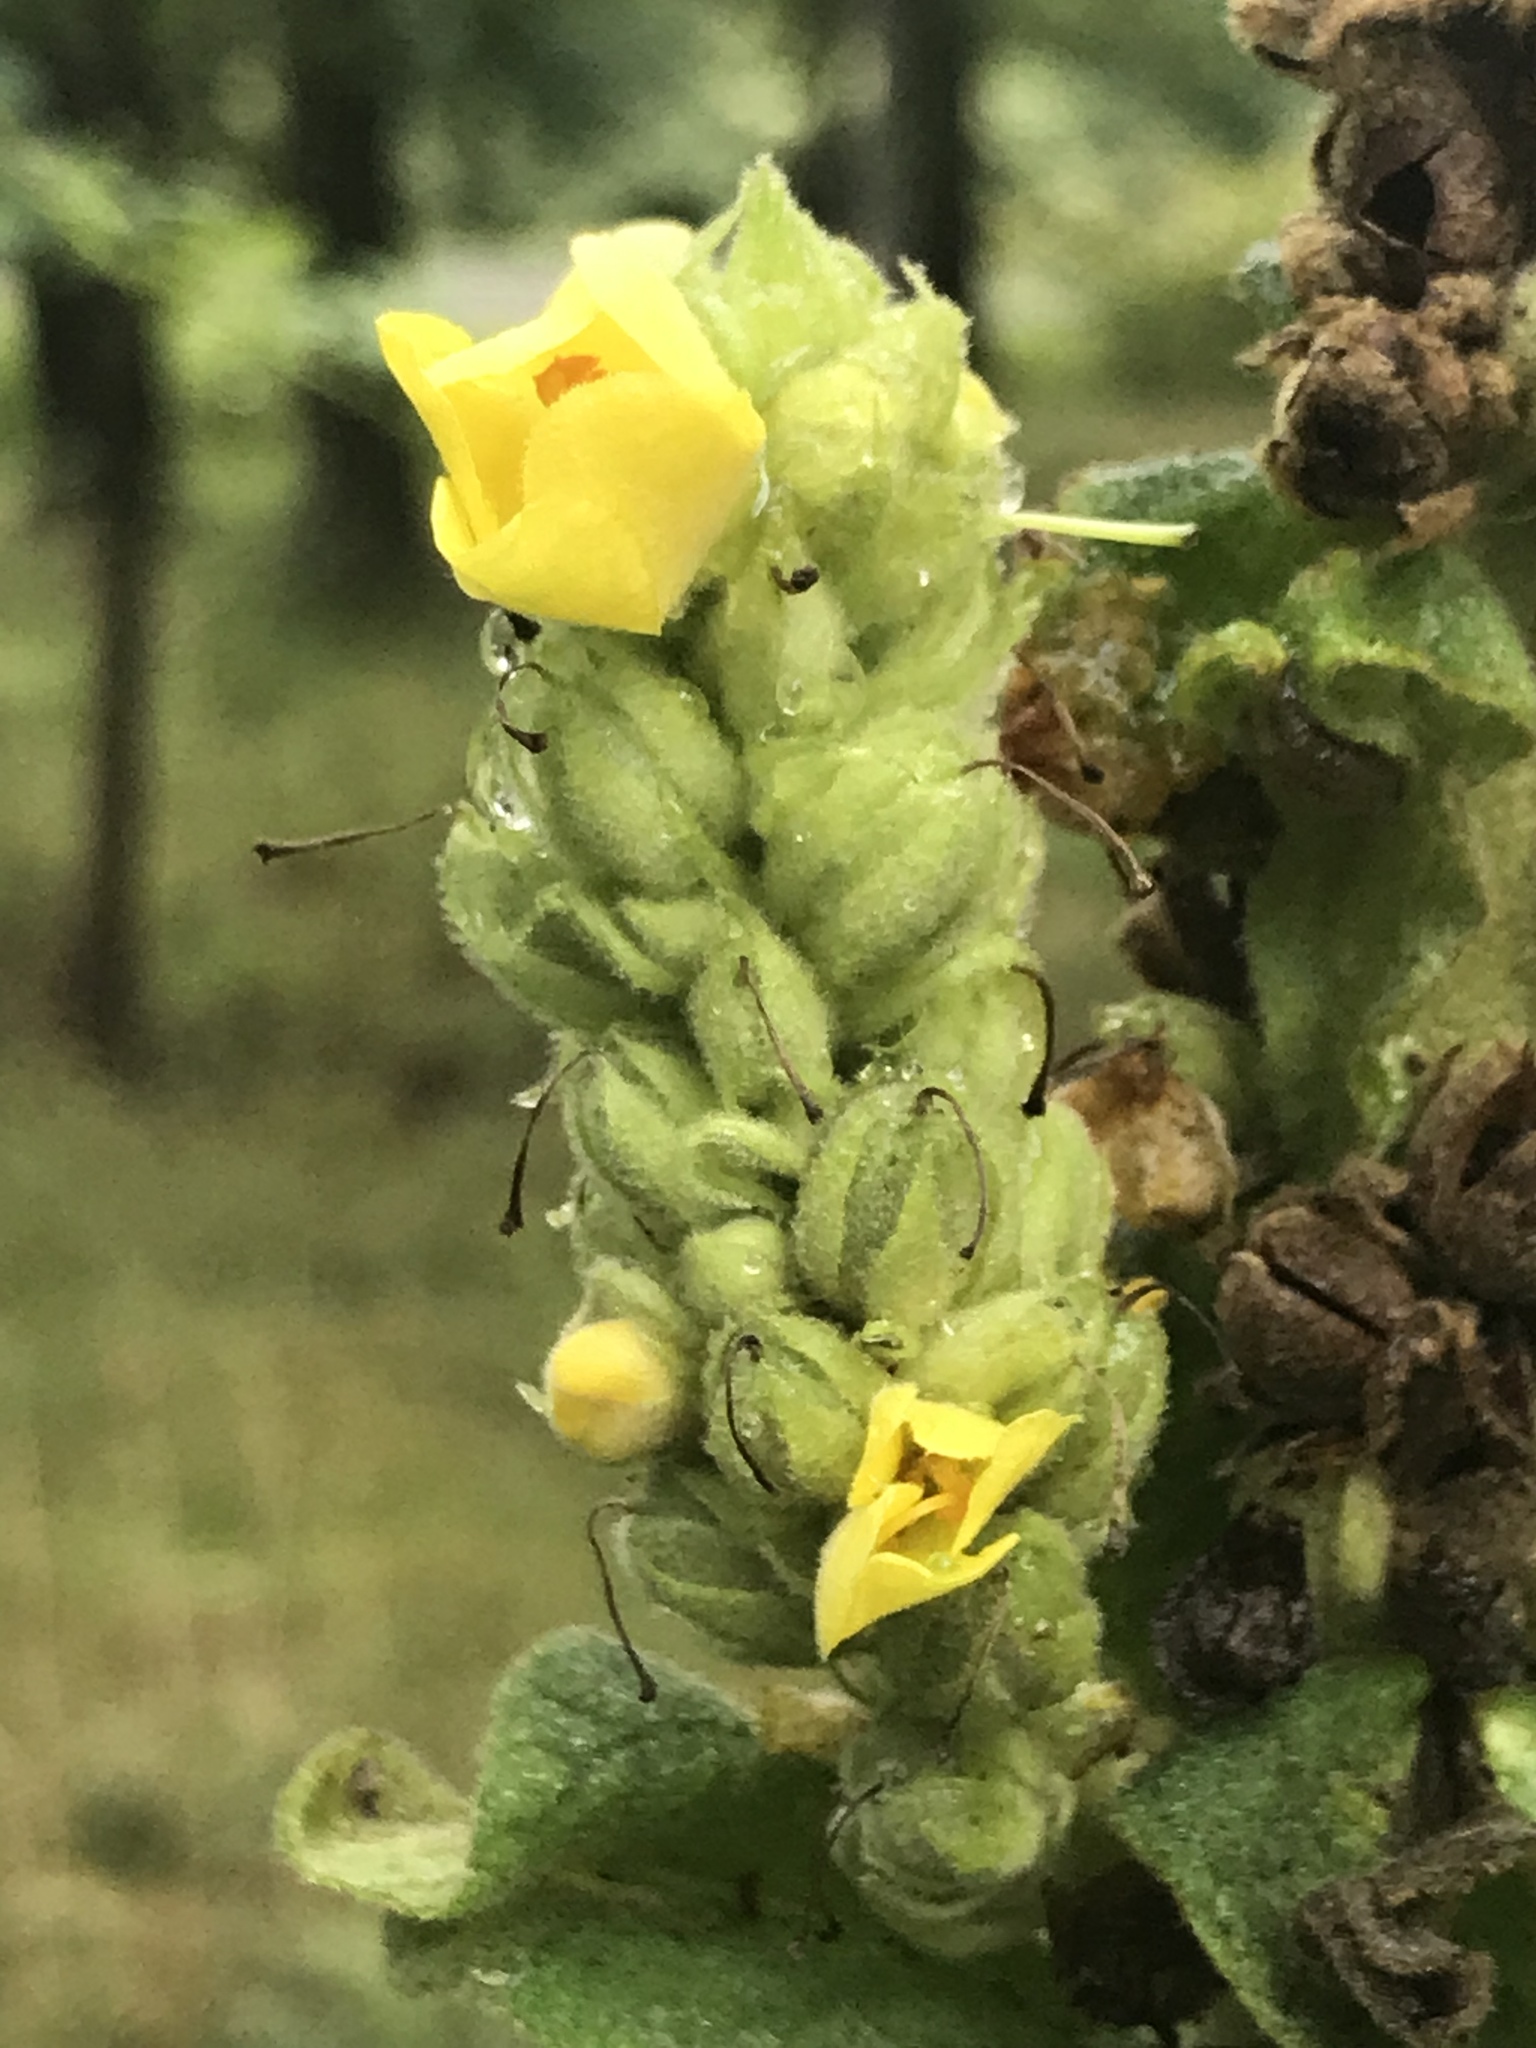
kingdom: Plantae
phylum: Tracheophyta
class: Magnoliopsida
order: Lamiales
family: Scrophulariaceae
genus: Verbascum
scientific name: Verbascum thapsus
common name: Common mullein
